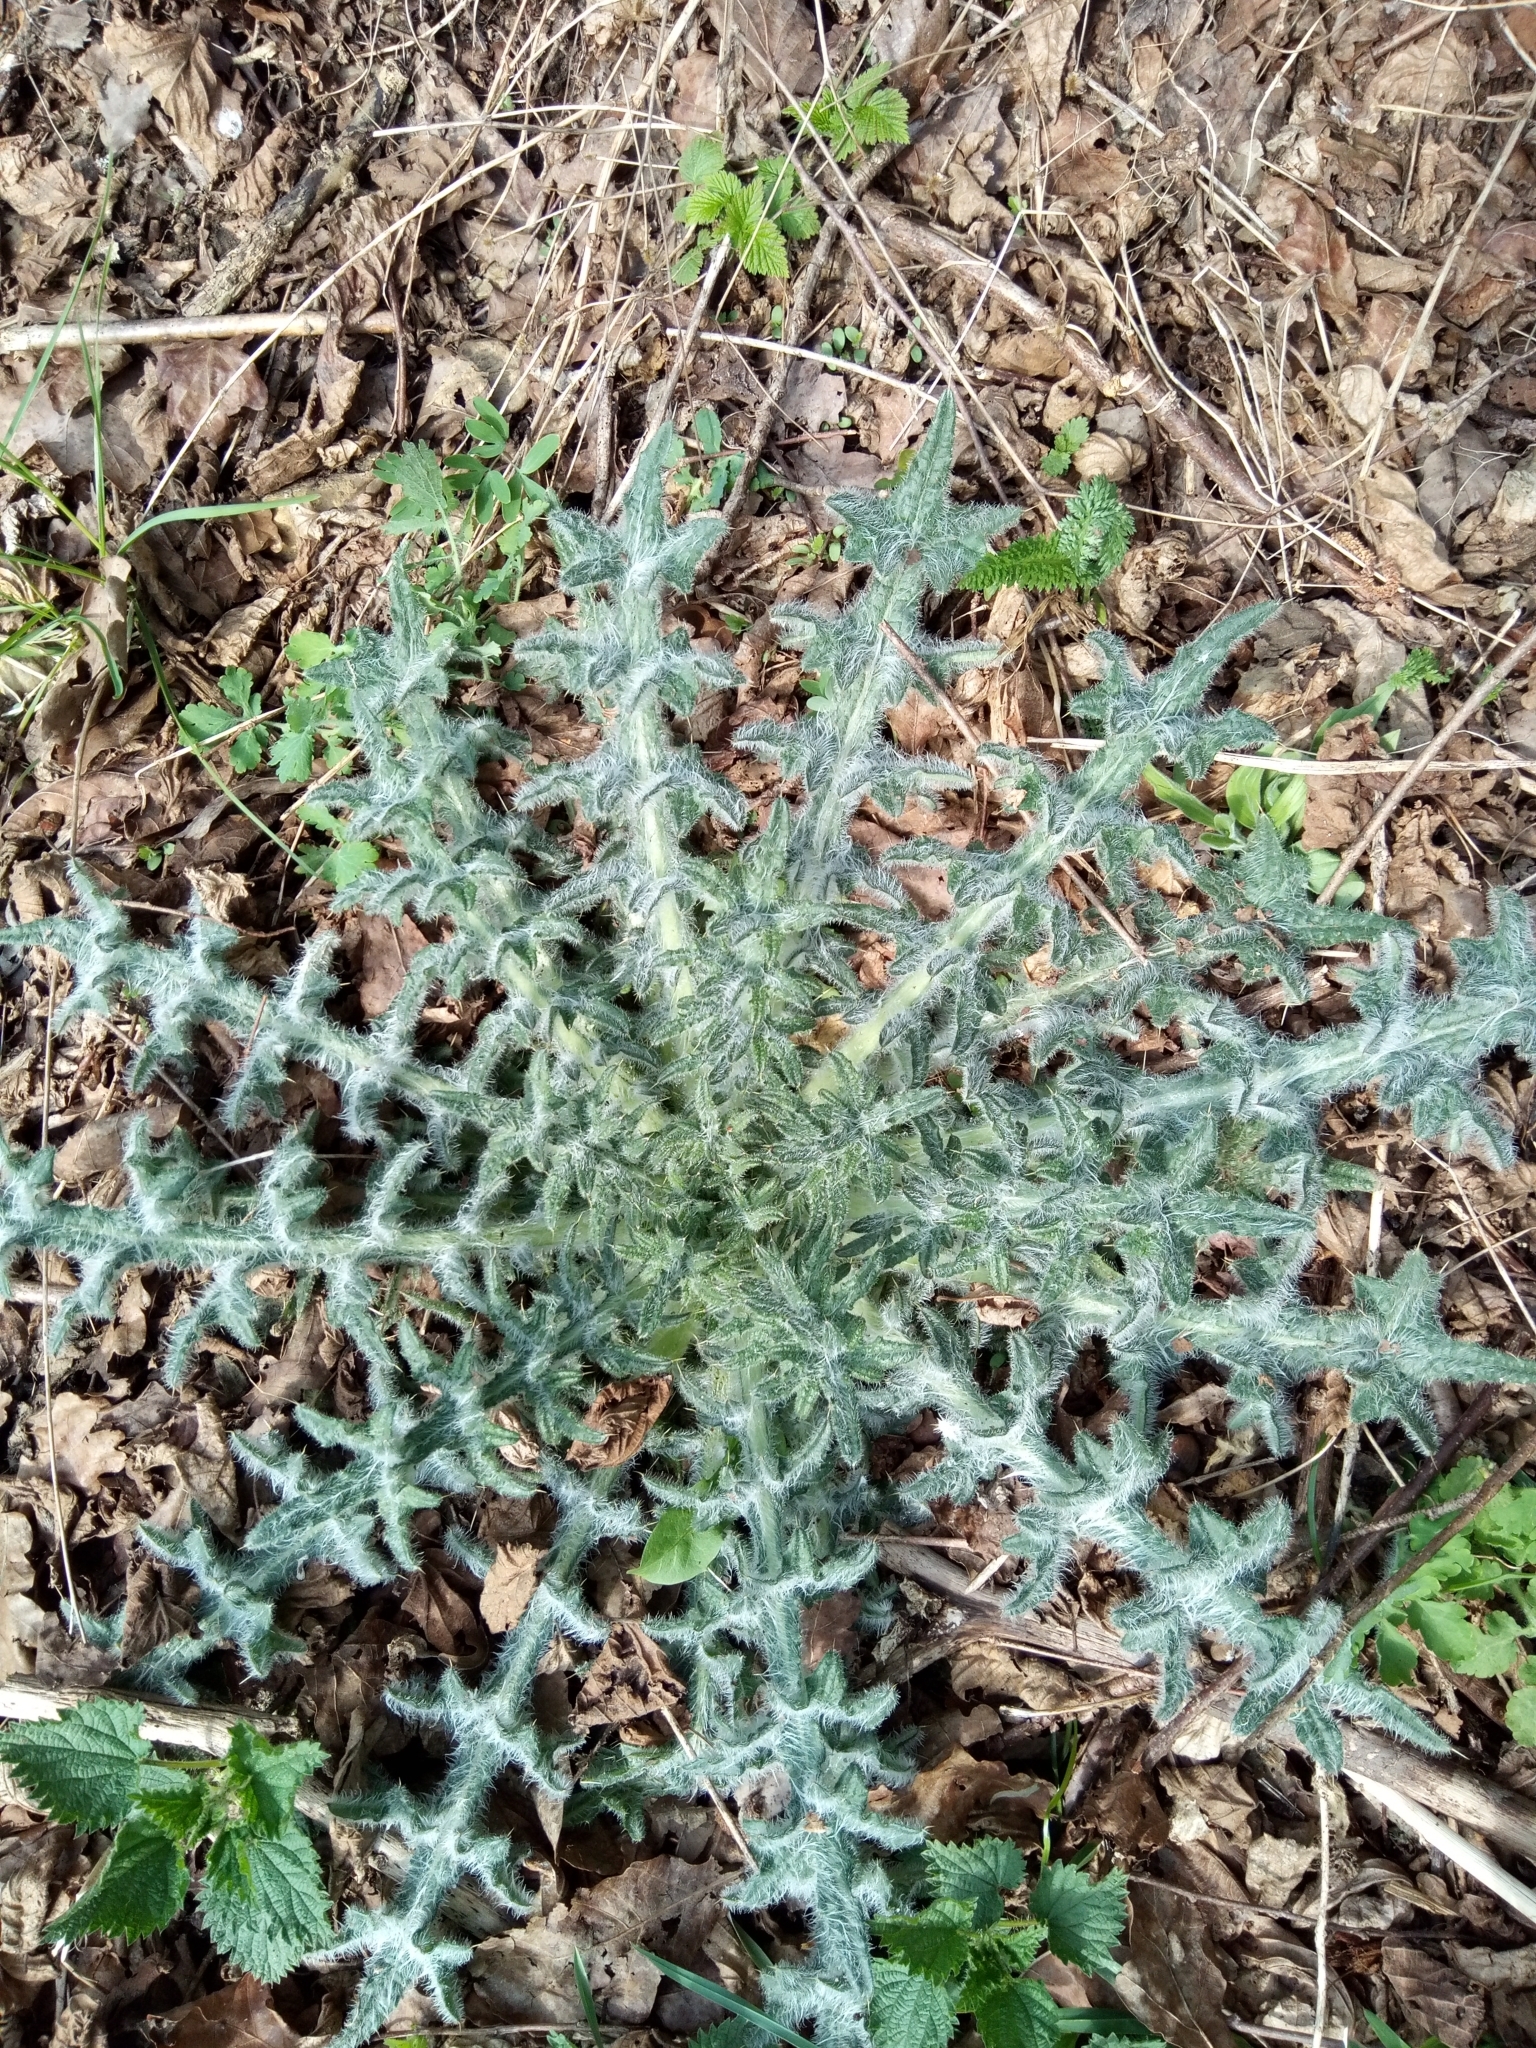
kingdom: Plantae
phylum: Tracheophyta
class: Magnoliopsida
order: Asterales
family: Asteraceae
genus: Cirsium
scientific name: Cirsium vulgare
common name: Bull thistle
